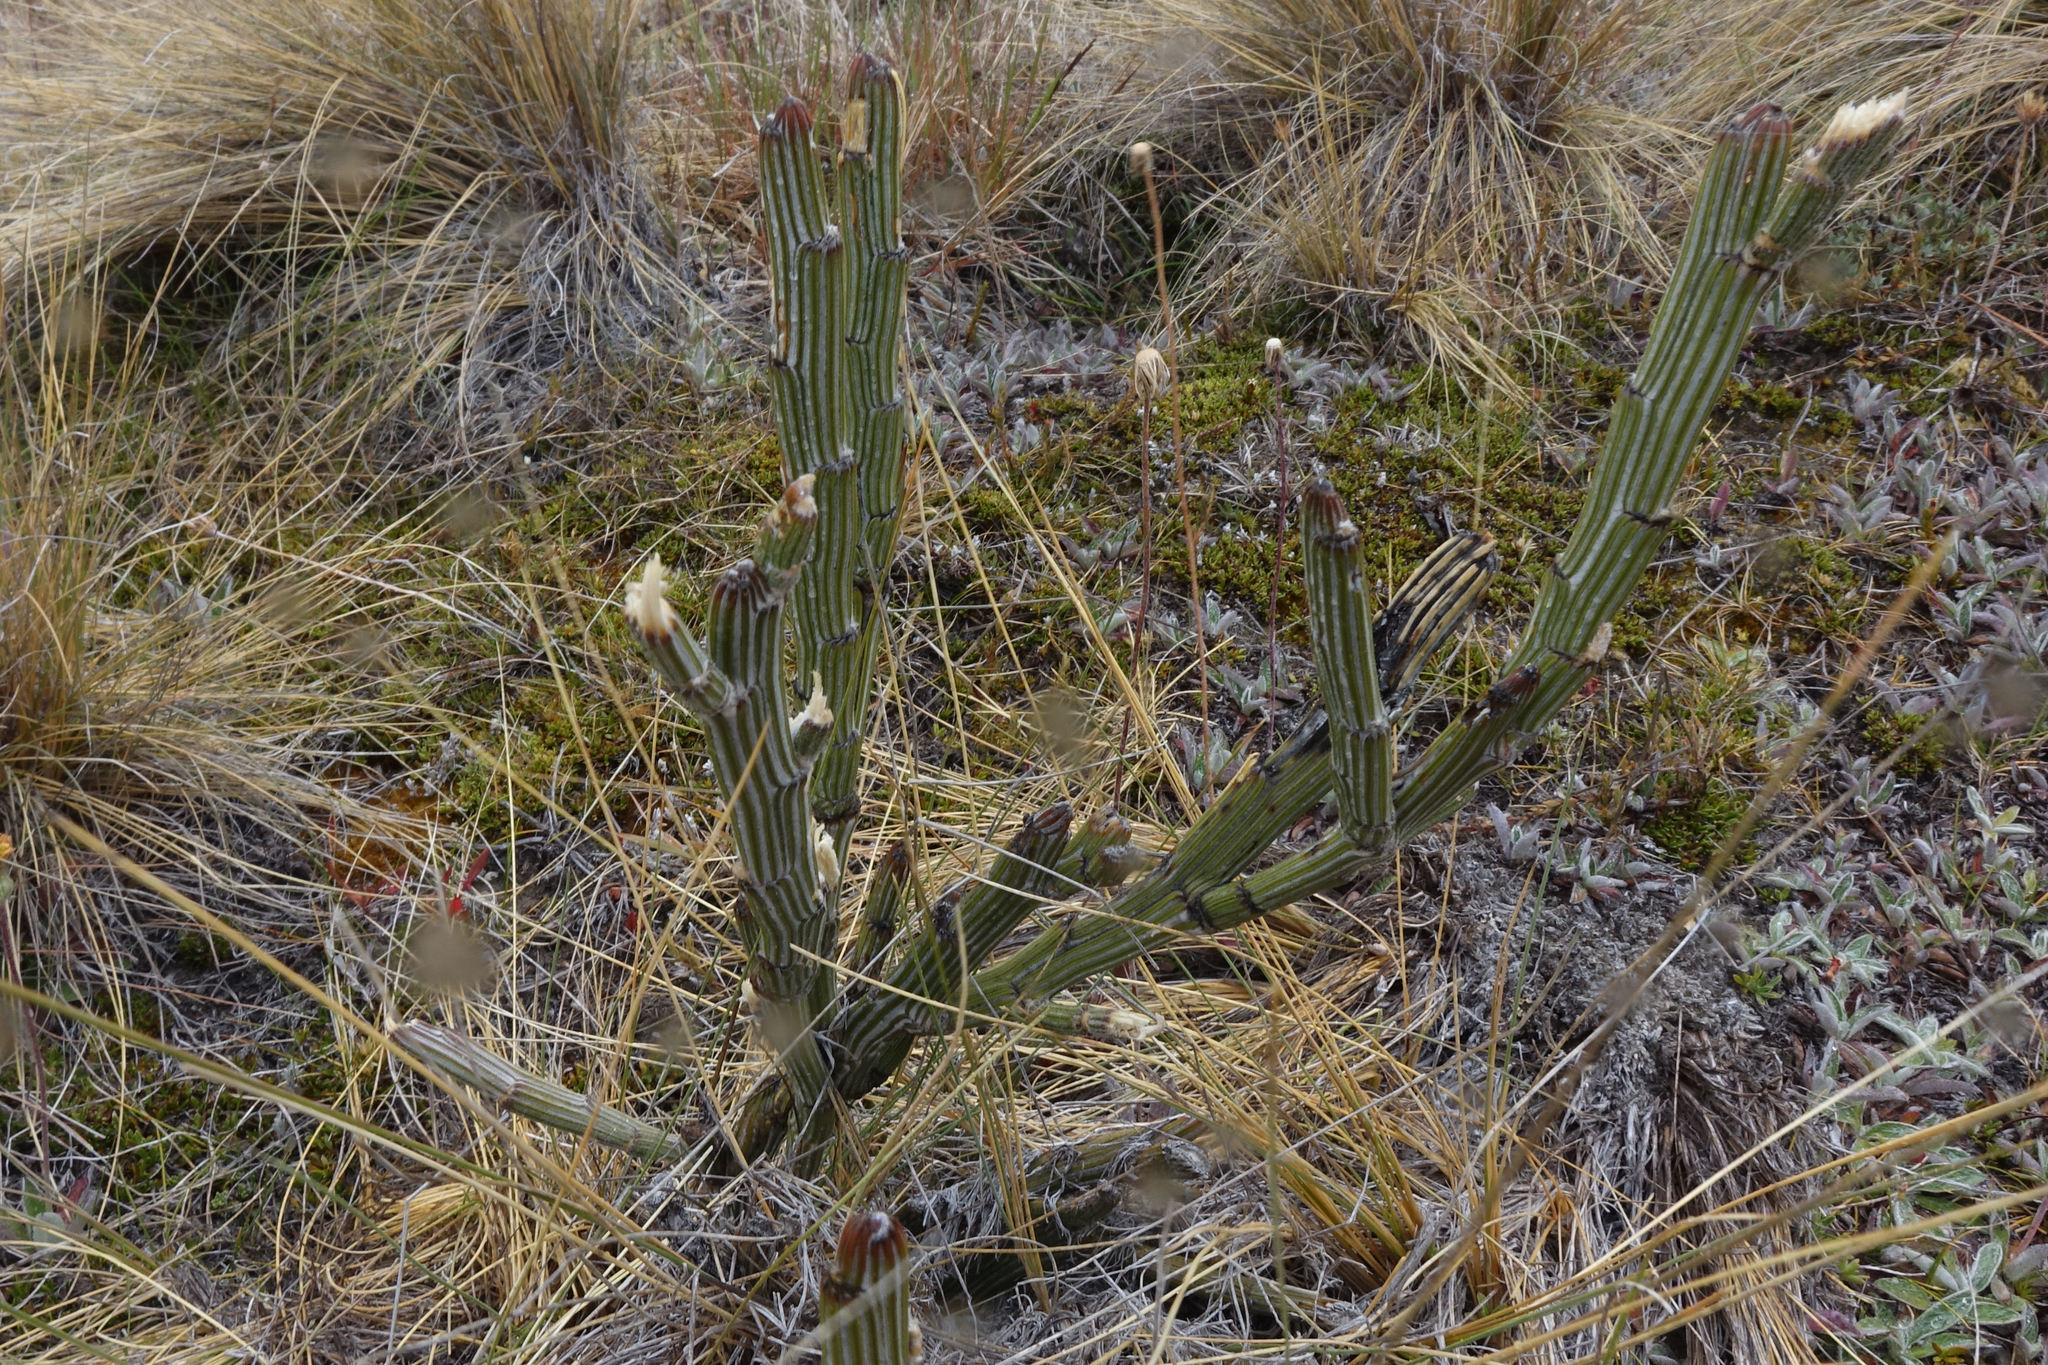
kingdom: Plantae
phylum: Tracheophyta
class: Magnoliopsida
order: Fabales
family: Fabaceae
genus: Carmichaelia
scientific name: Carmichaelia crassicaulis
